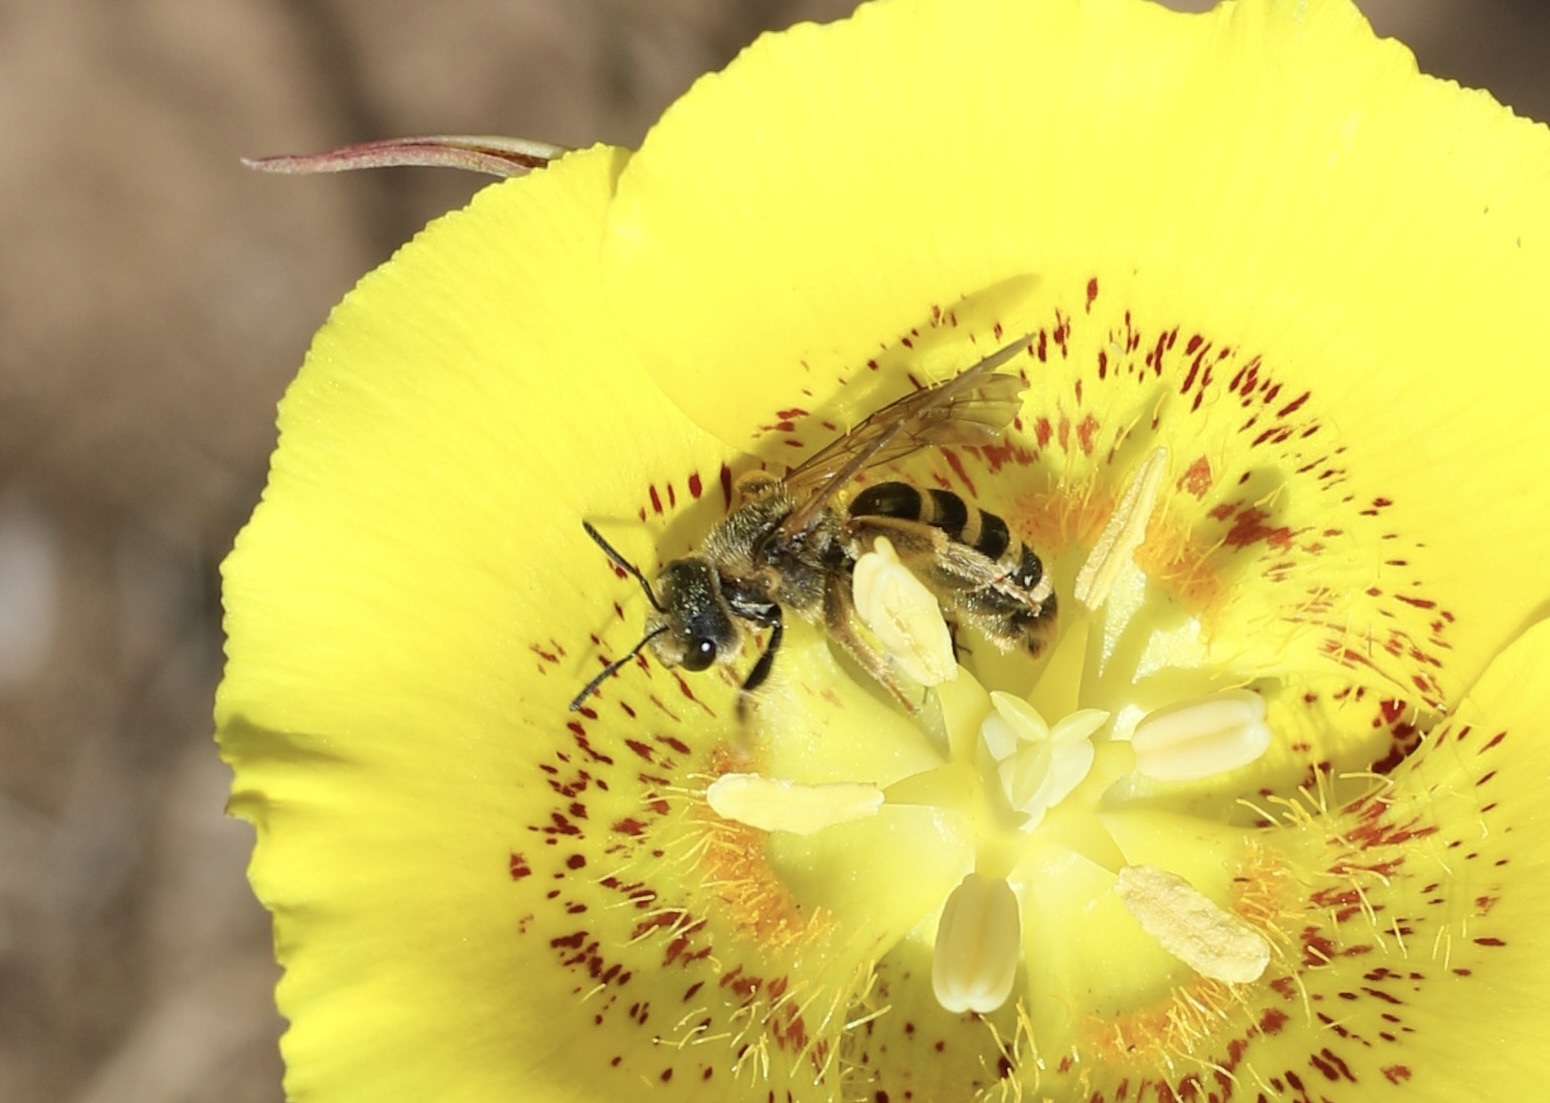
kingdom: Animalia
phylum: Arthropoda
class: Insecta
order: Hymenoptera
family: Halictidae
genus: Halictus
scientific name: Halictus farinosus
